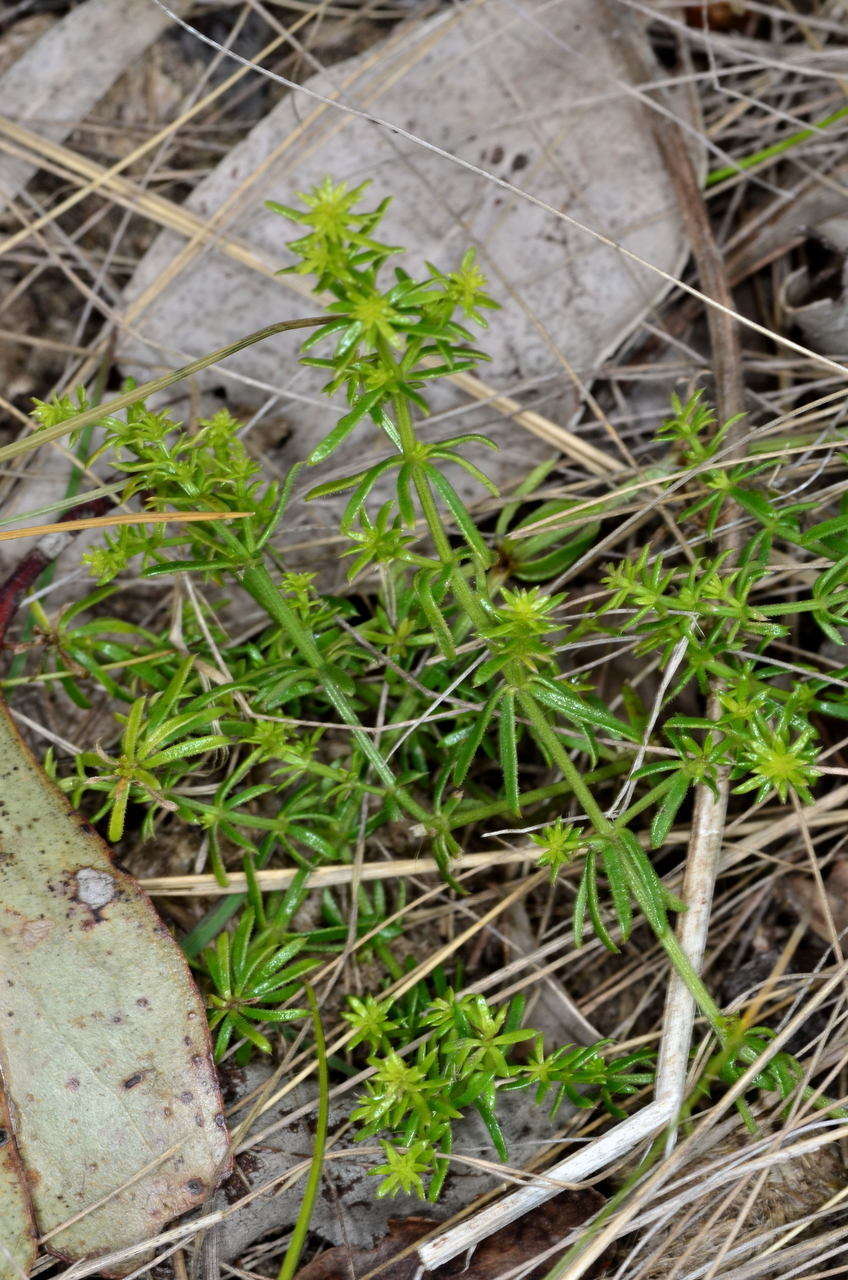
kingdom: Plantae
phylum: Tracheophyta
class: Magnoliopsida
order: Gentianales
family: Rubiaceae
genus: Asperula
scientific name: Asperula conferta
